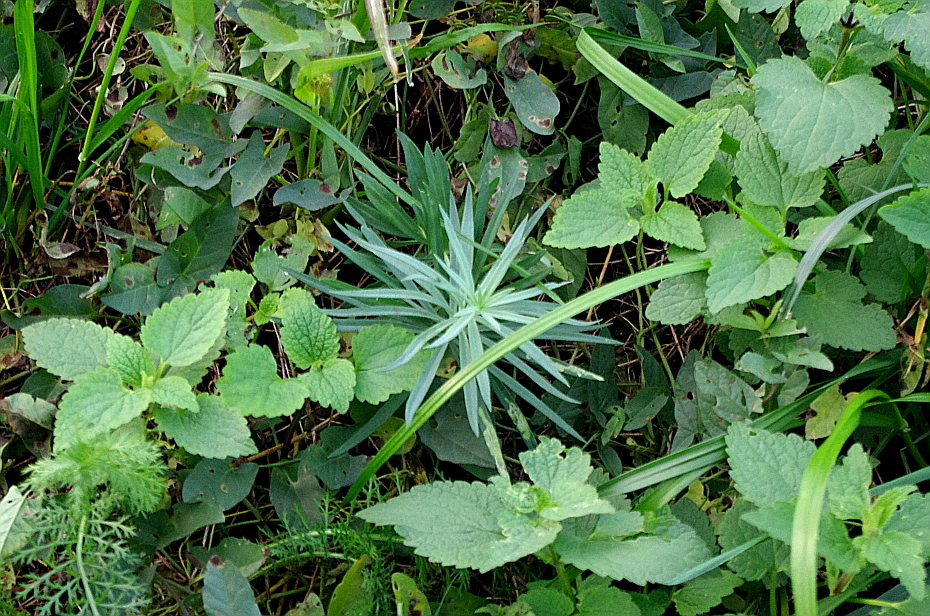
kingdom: Plantae
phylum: Tracheophyta
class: Magnoliopsida
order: Lamiales
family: Plantaginaceae
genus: Linaria
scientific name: Linaria vulgaris
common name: Butter and eggs
